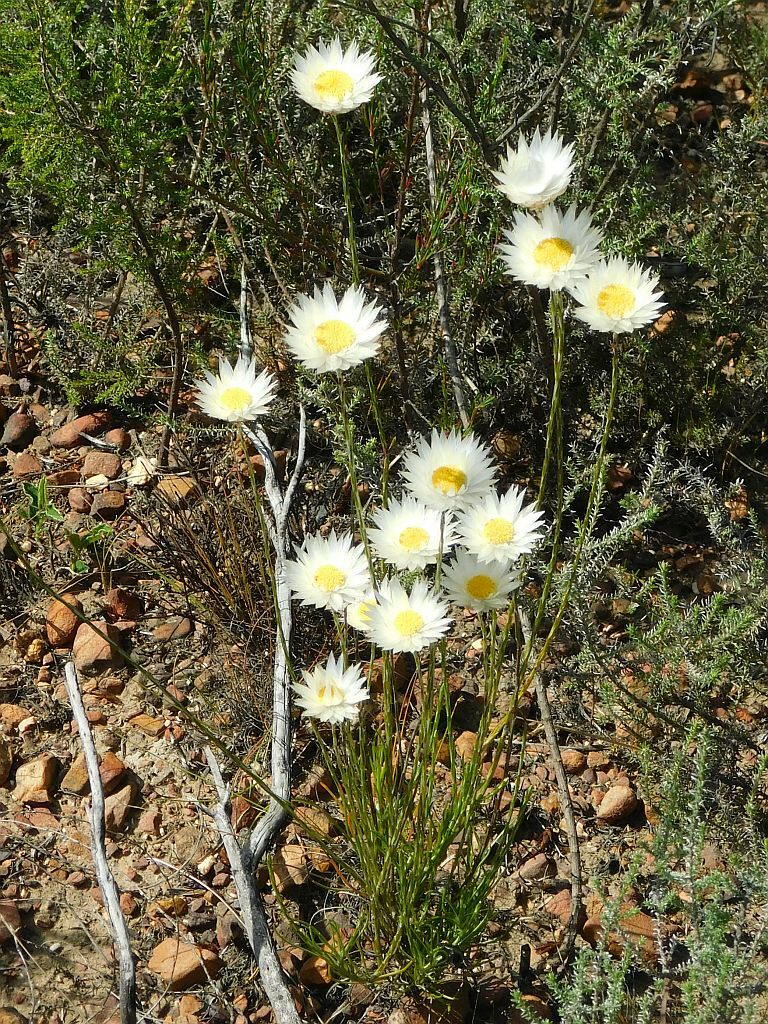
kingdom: Plantae
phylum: Tracheophyta
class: Magnoliopsida
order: Asterales
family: Asteraceae
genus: Edmondia
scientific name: Edmondia sesamoides
